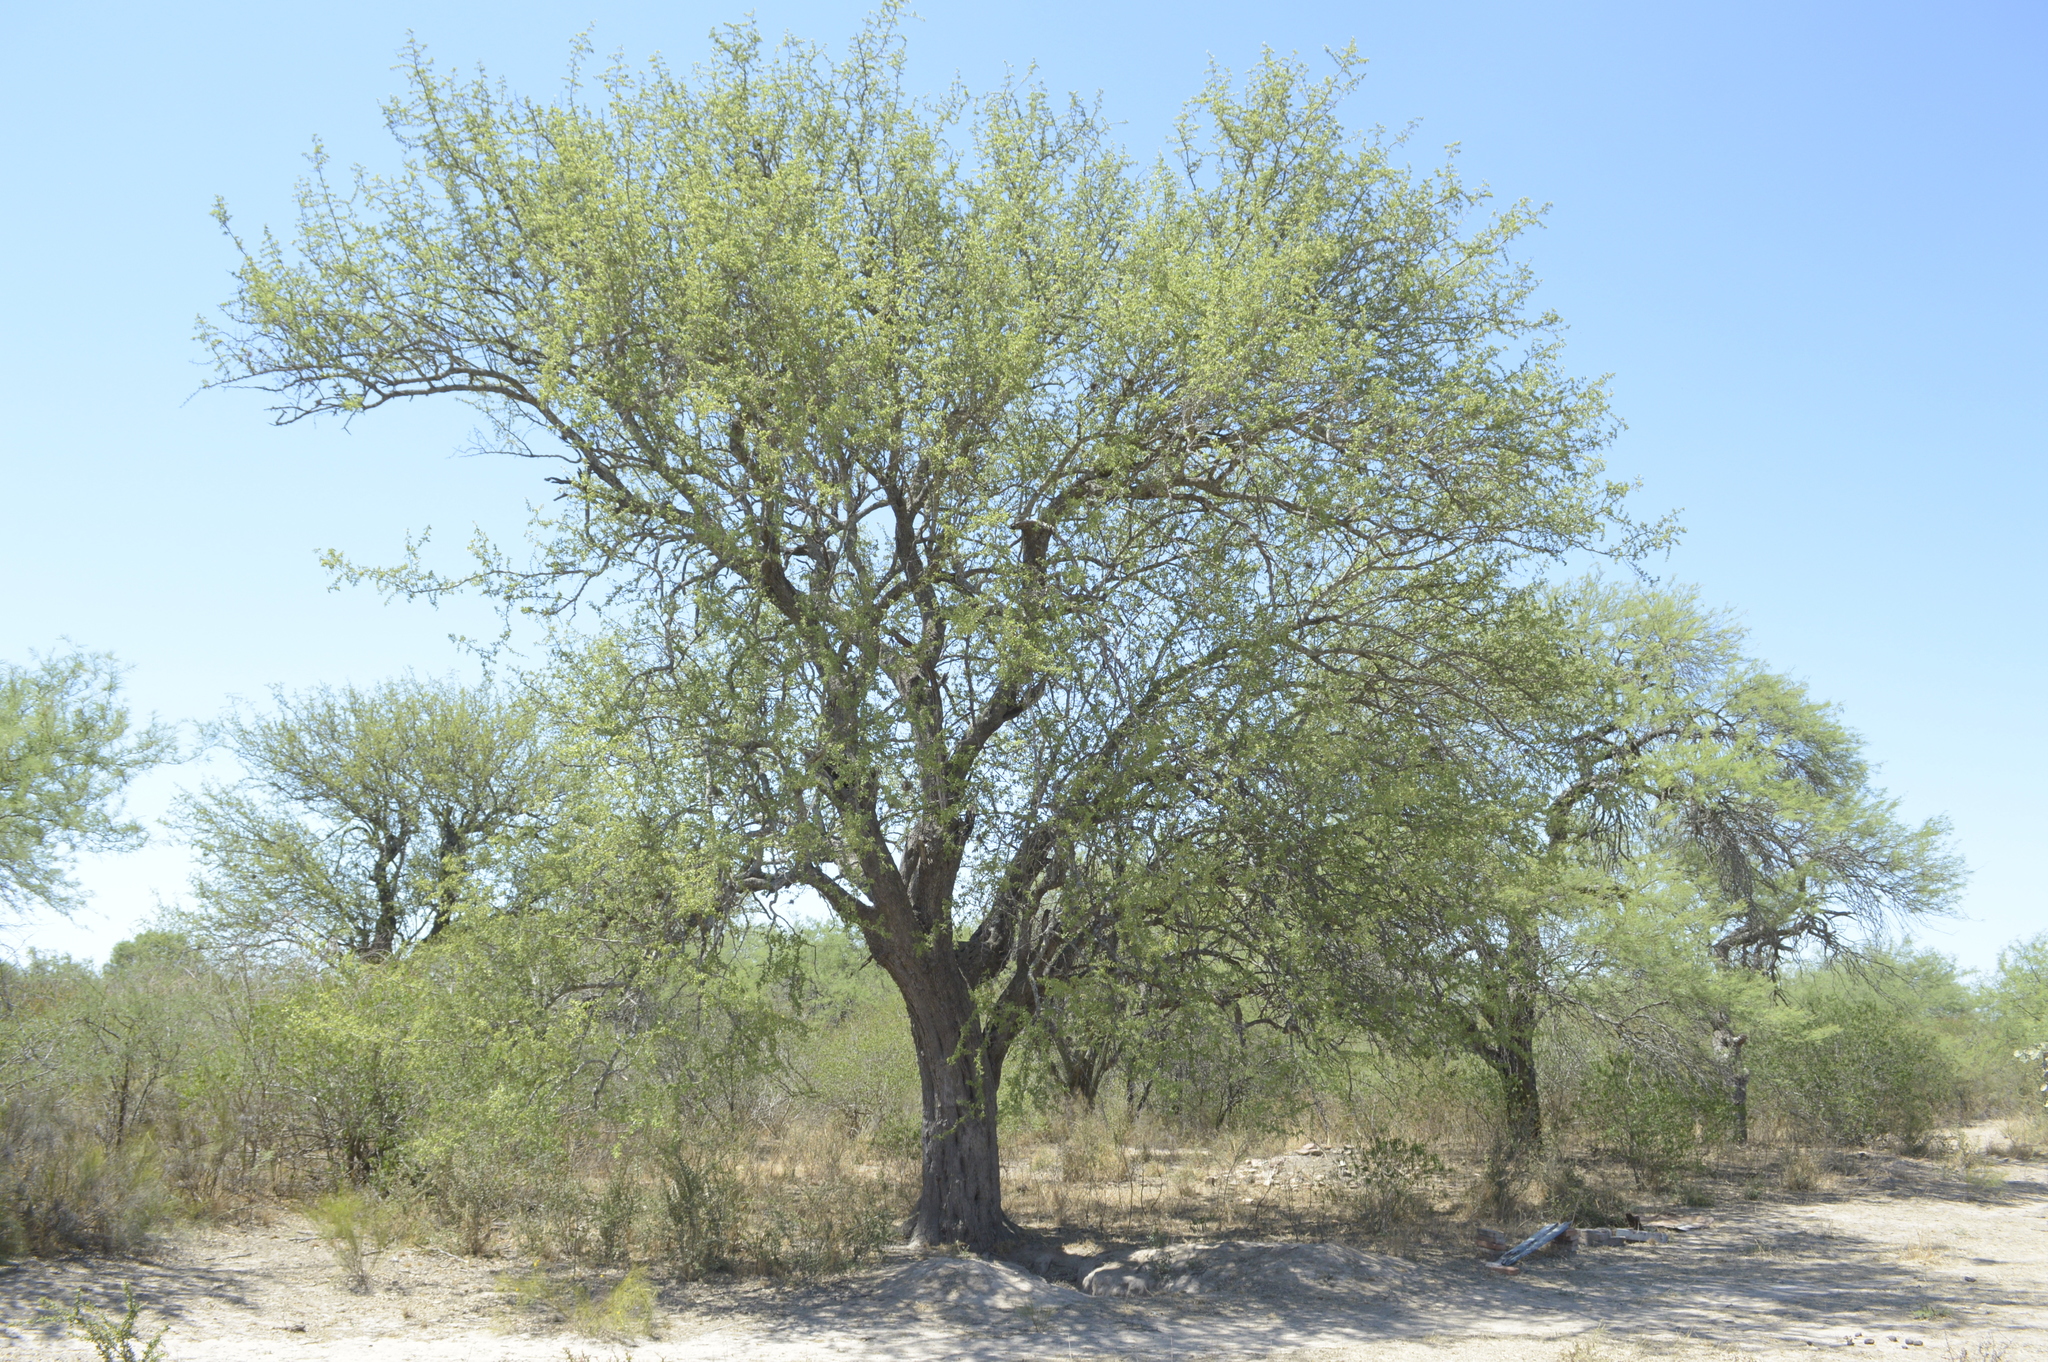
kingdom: Plantae
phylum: Tracheophyta
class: Magnoliopsida
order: Rosales
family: Rhamnaceae
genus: Sarcomphalus
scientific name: Sarcomphalus mistol
